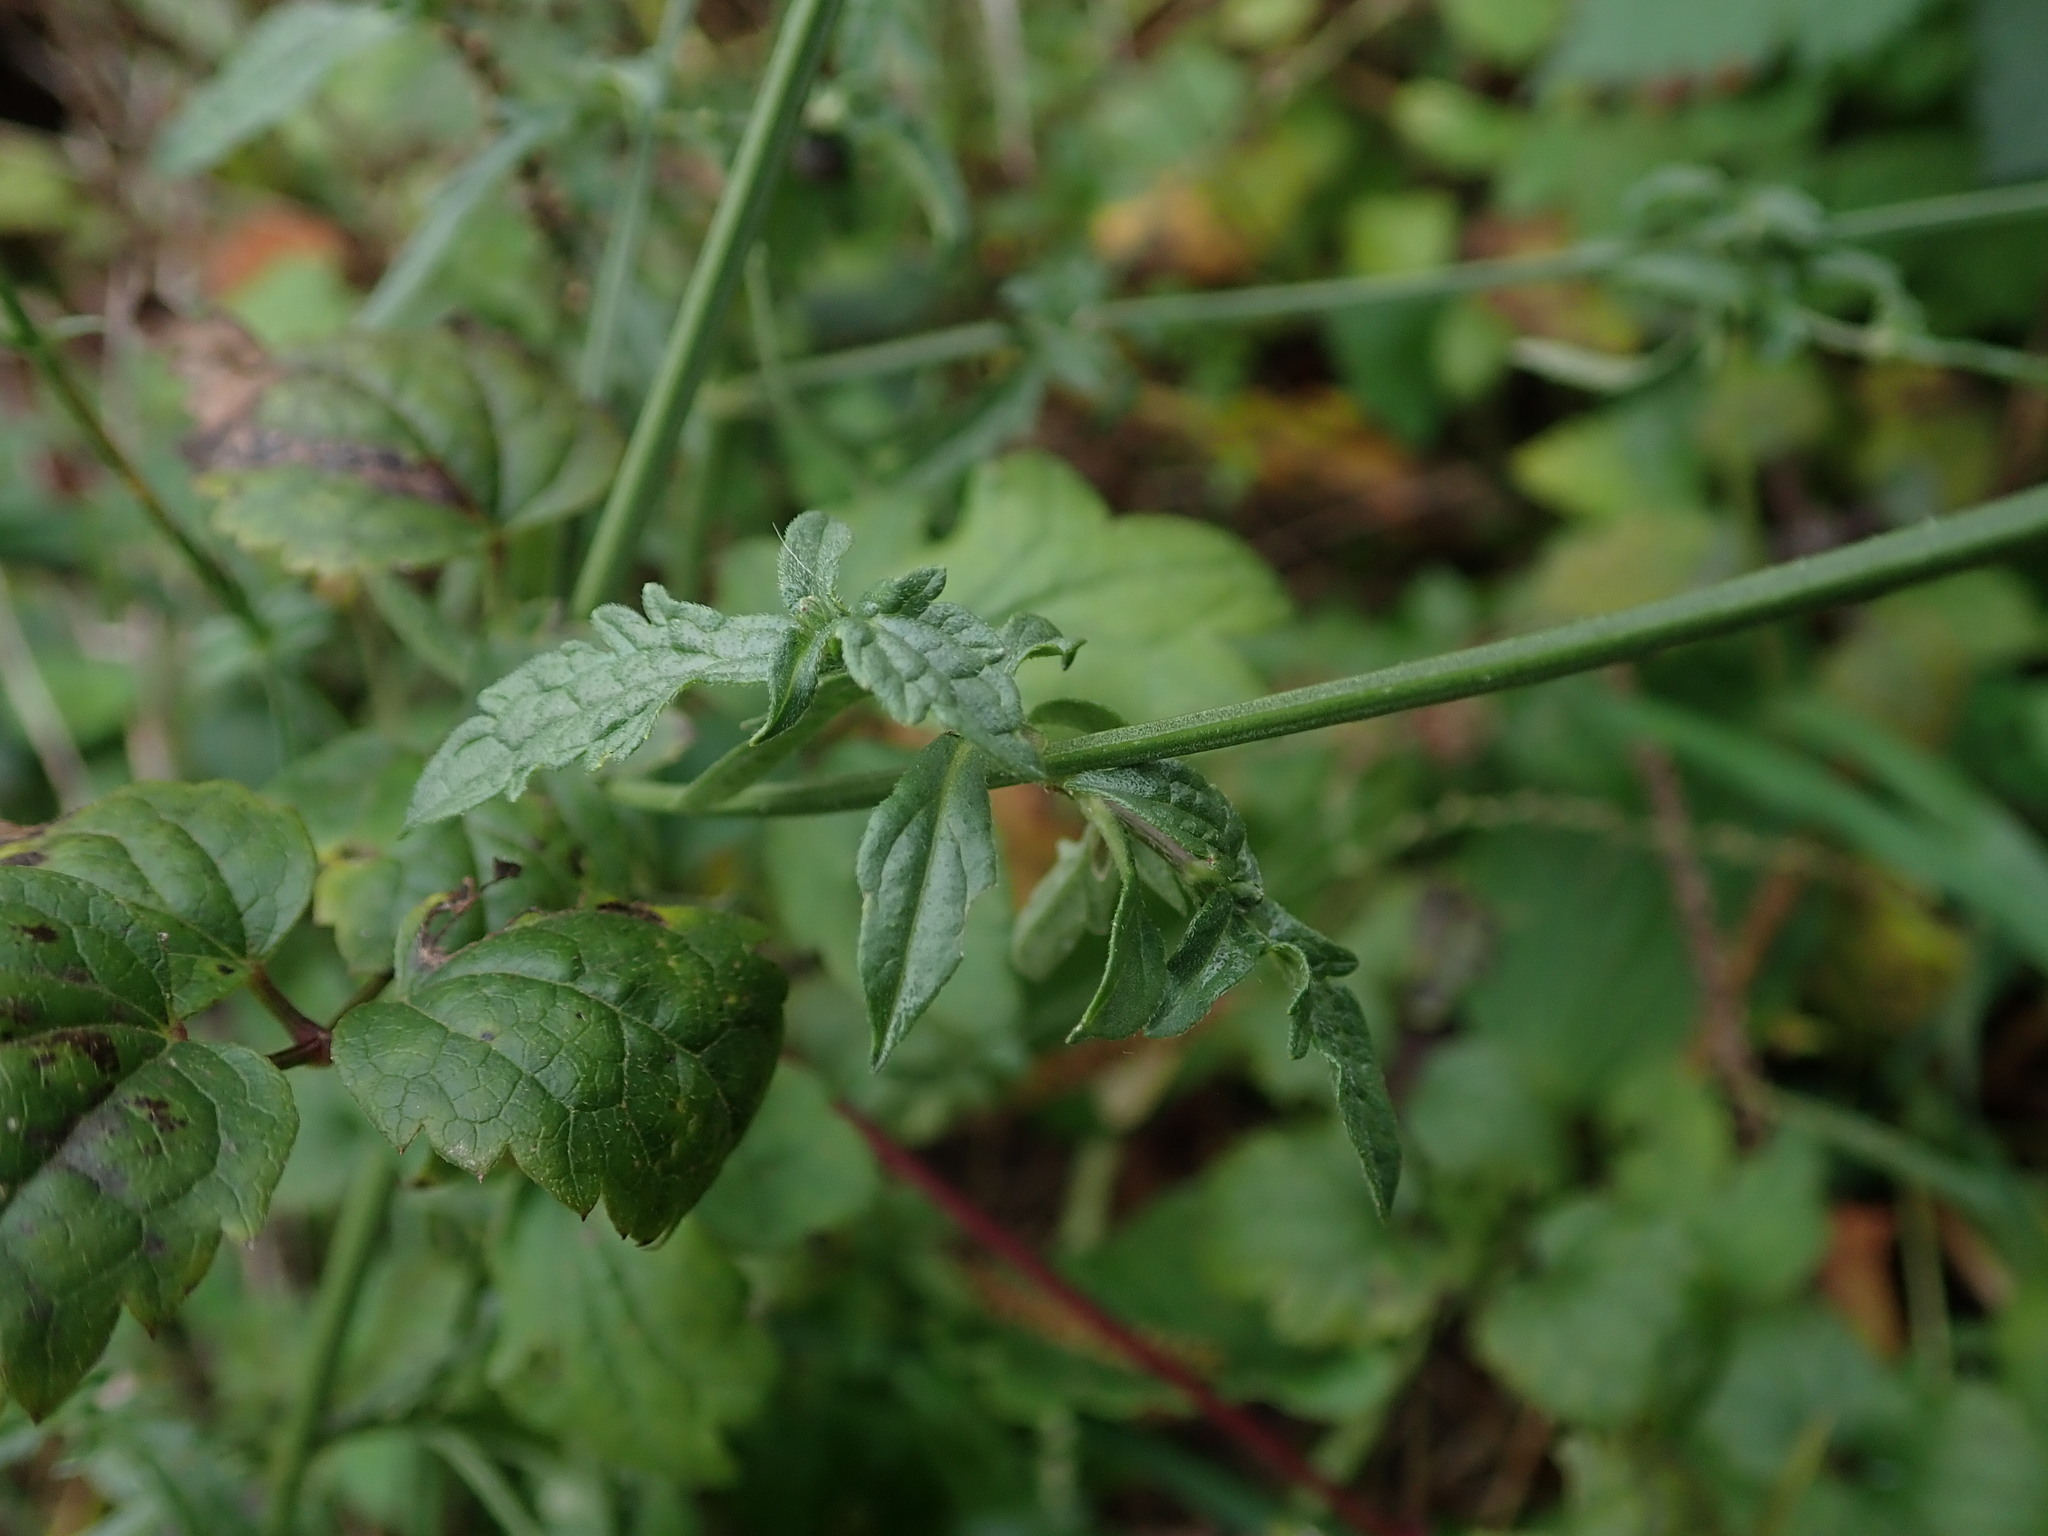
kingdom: Plantae
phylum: Tracheophyta
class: Magnoliopsida
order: Lamiales
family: Verbenaceae
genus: Verbena
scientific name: Verbena officinalis
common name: Vervain
